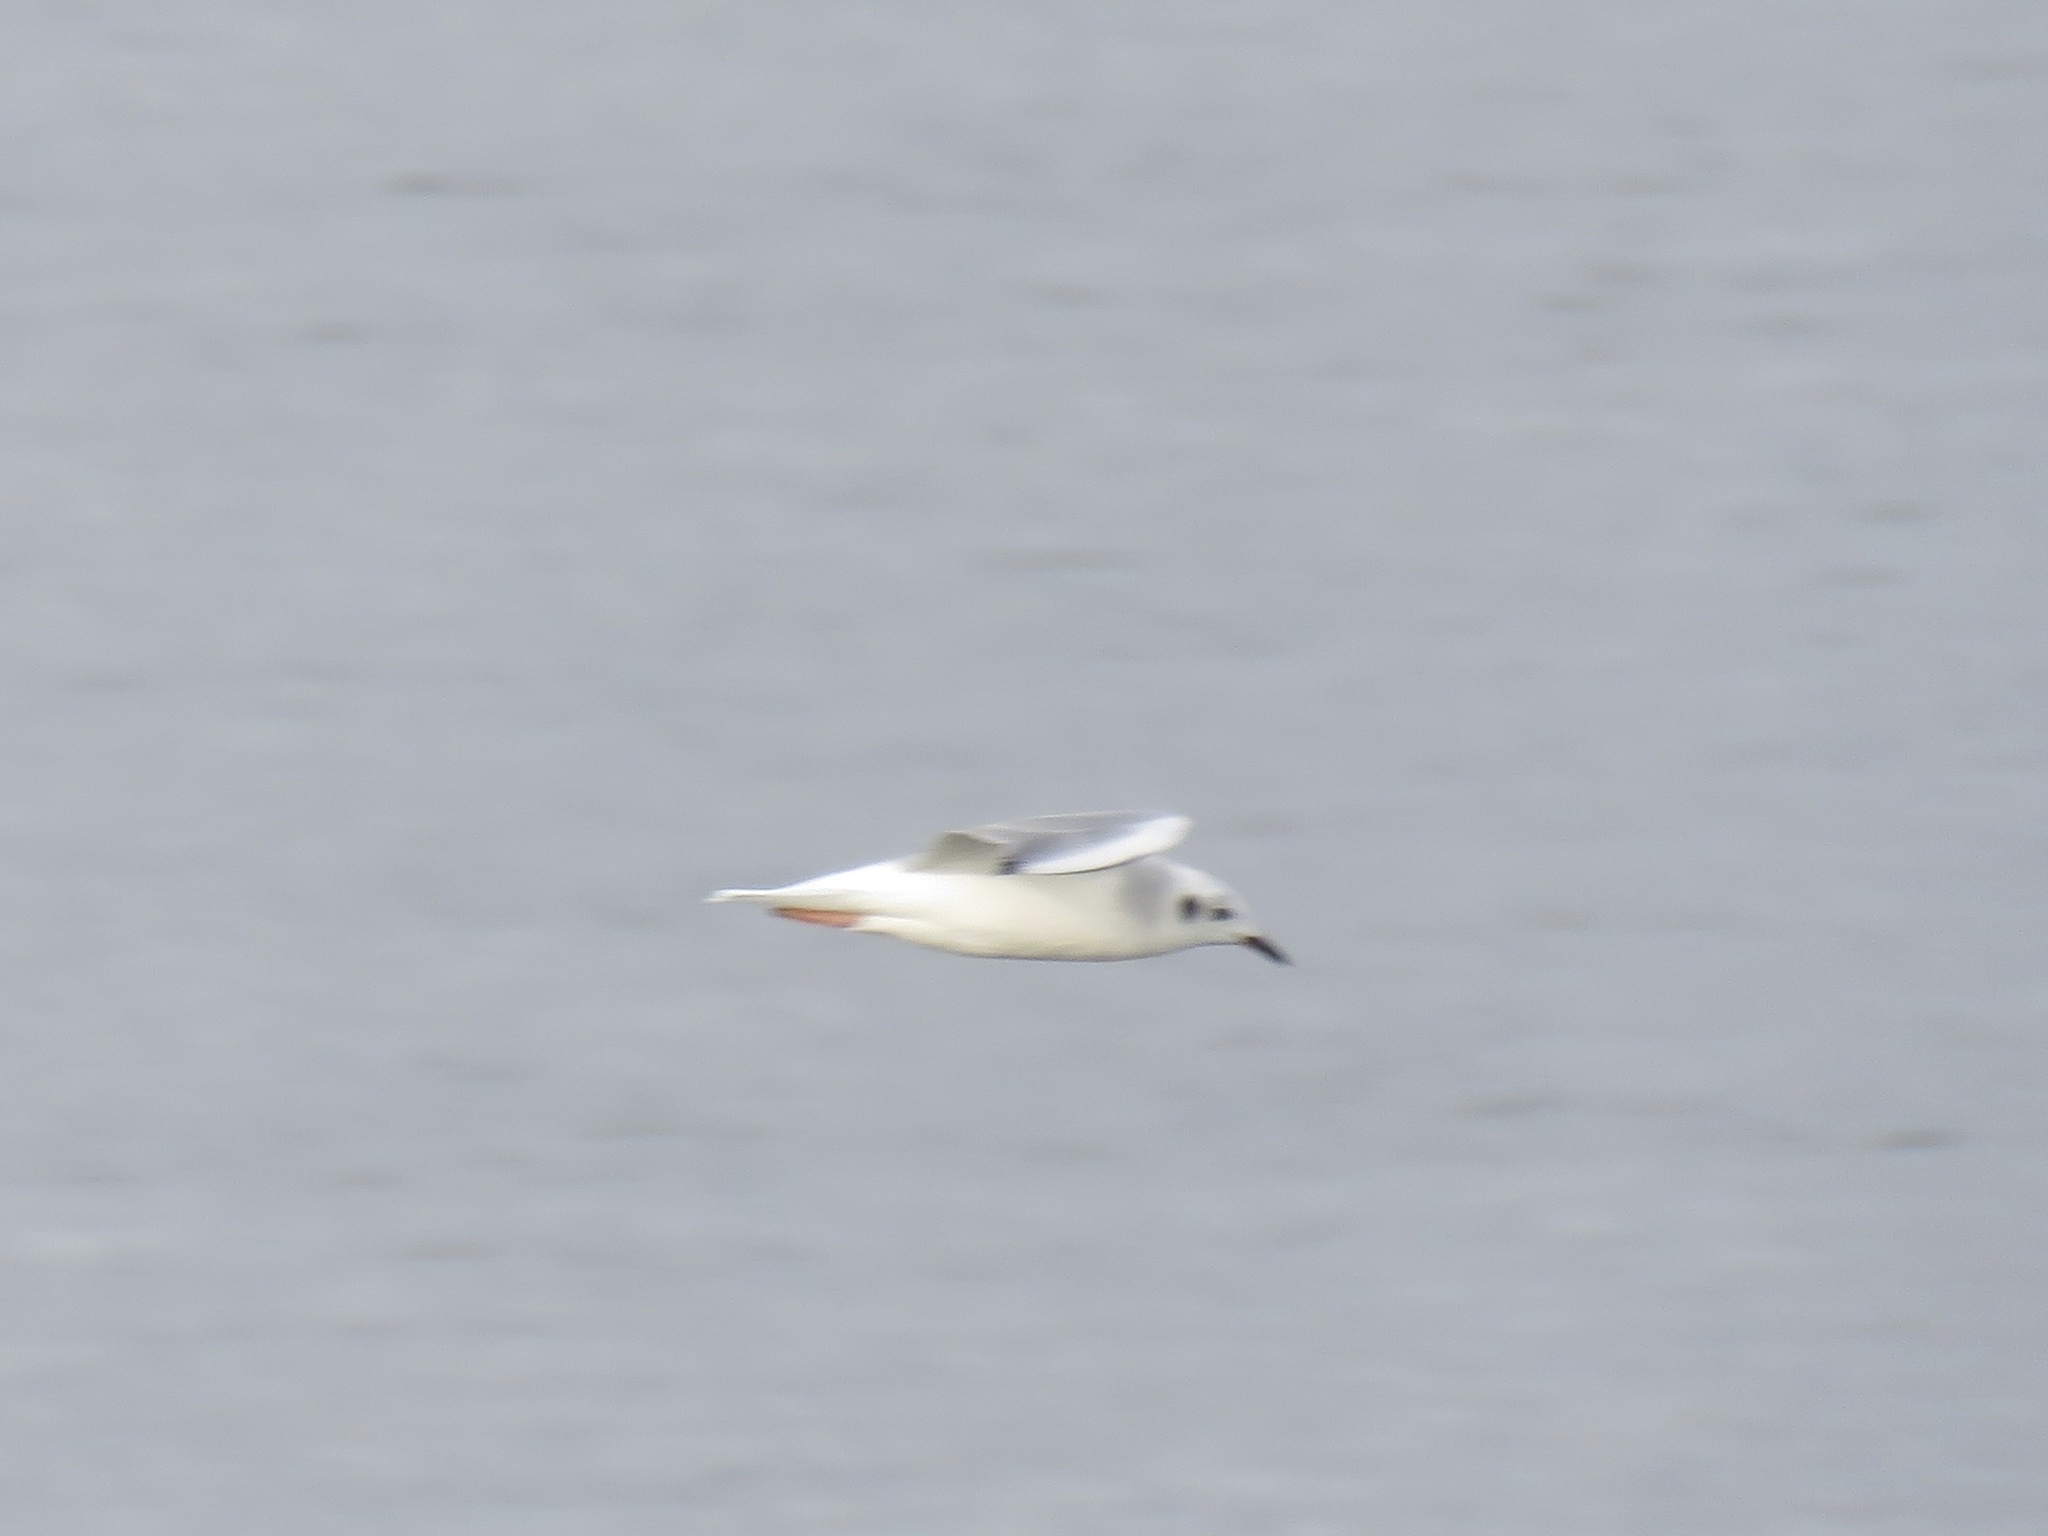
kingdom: Animalia
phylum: Chordata
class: Aves
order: Charadriiformes
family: Laridae
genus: Chroicocephalus
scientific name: Chroicocephalus philadelphia
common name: Bonaparte's gull
